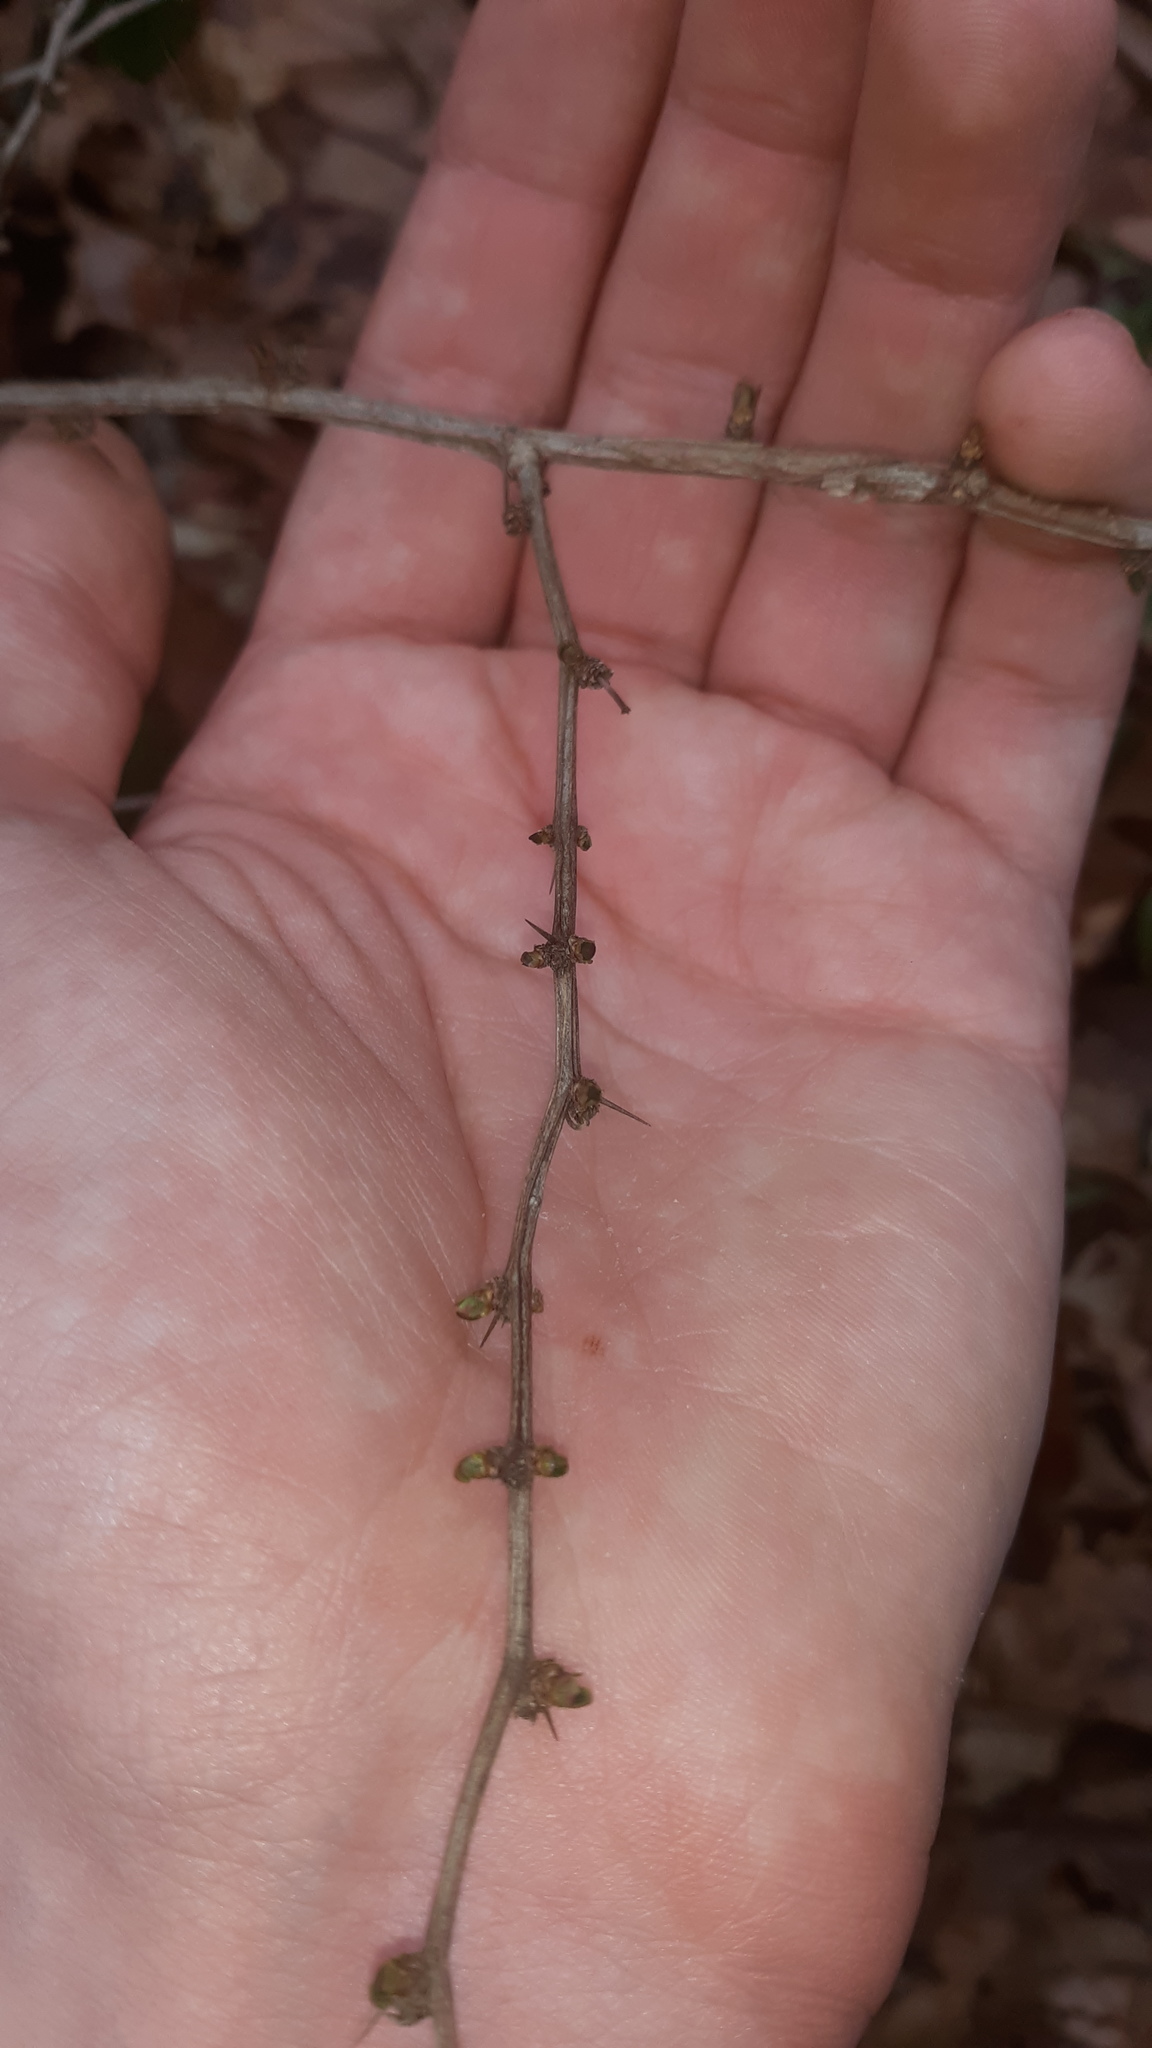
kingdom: Plantae
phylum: Tracheophyta
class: Magnoliopsida
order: Ranunculales
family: Berberidaceae
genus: Berberis
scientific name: Berberis thunbergii
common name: Japanese barberry
